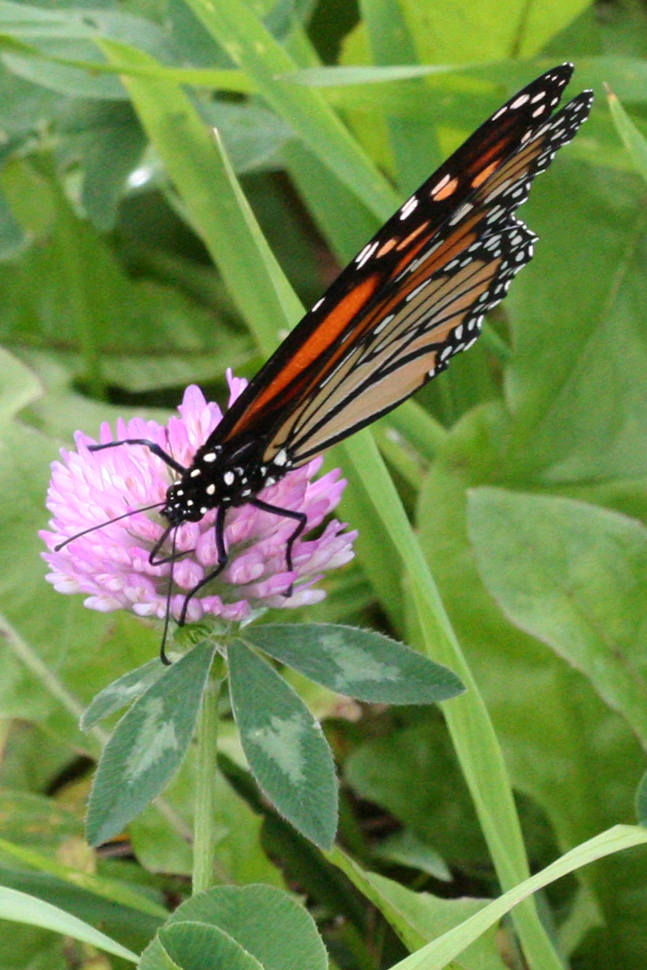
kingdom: Animalia
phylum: Arthropoda
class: Insecta
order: Lepidoptera
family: Nymphalidae
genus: Danaus
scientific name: Danaus plexippus
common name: Monarch
